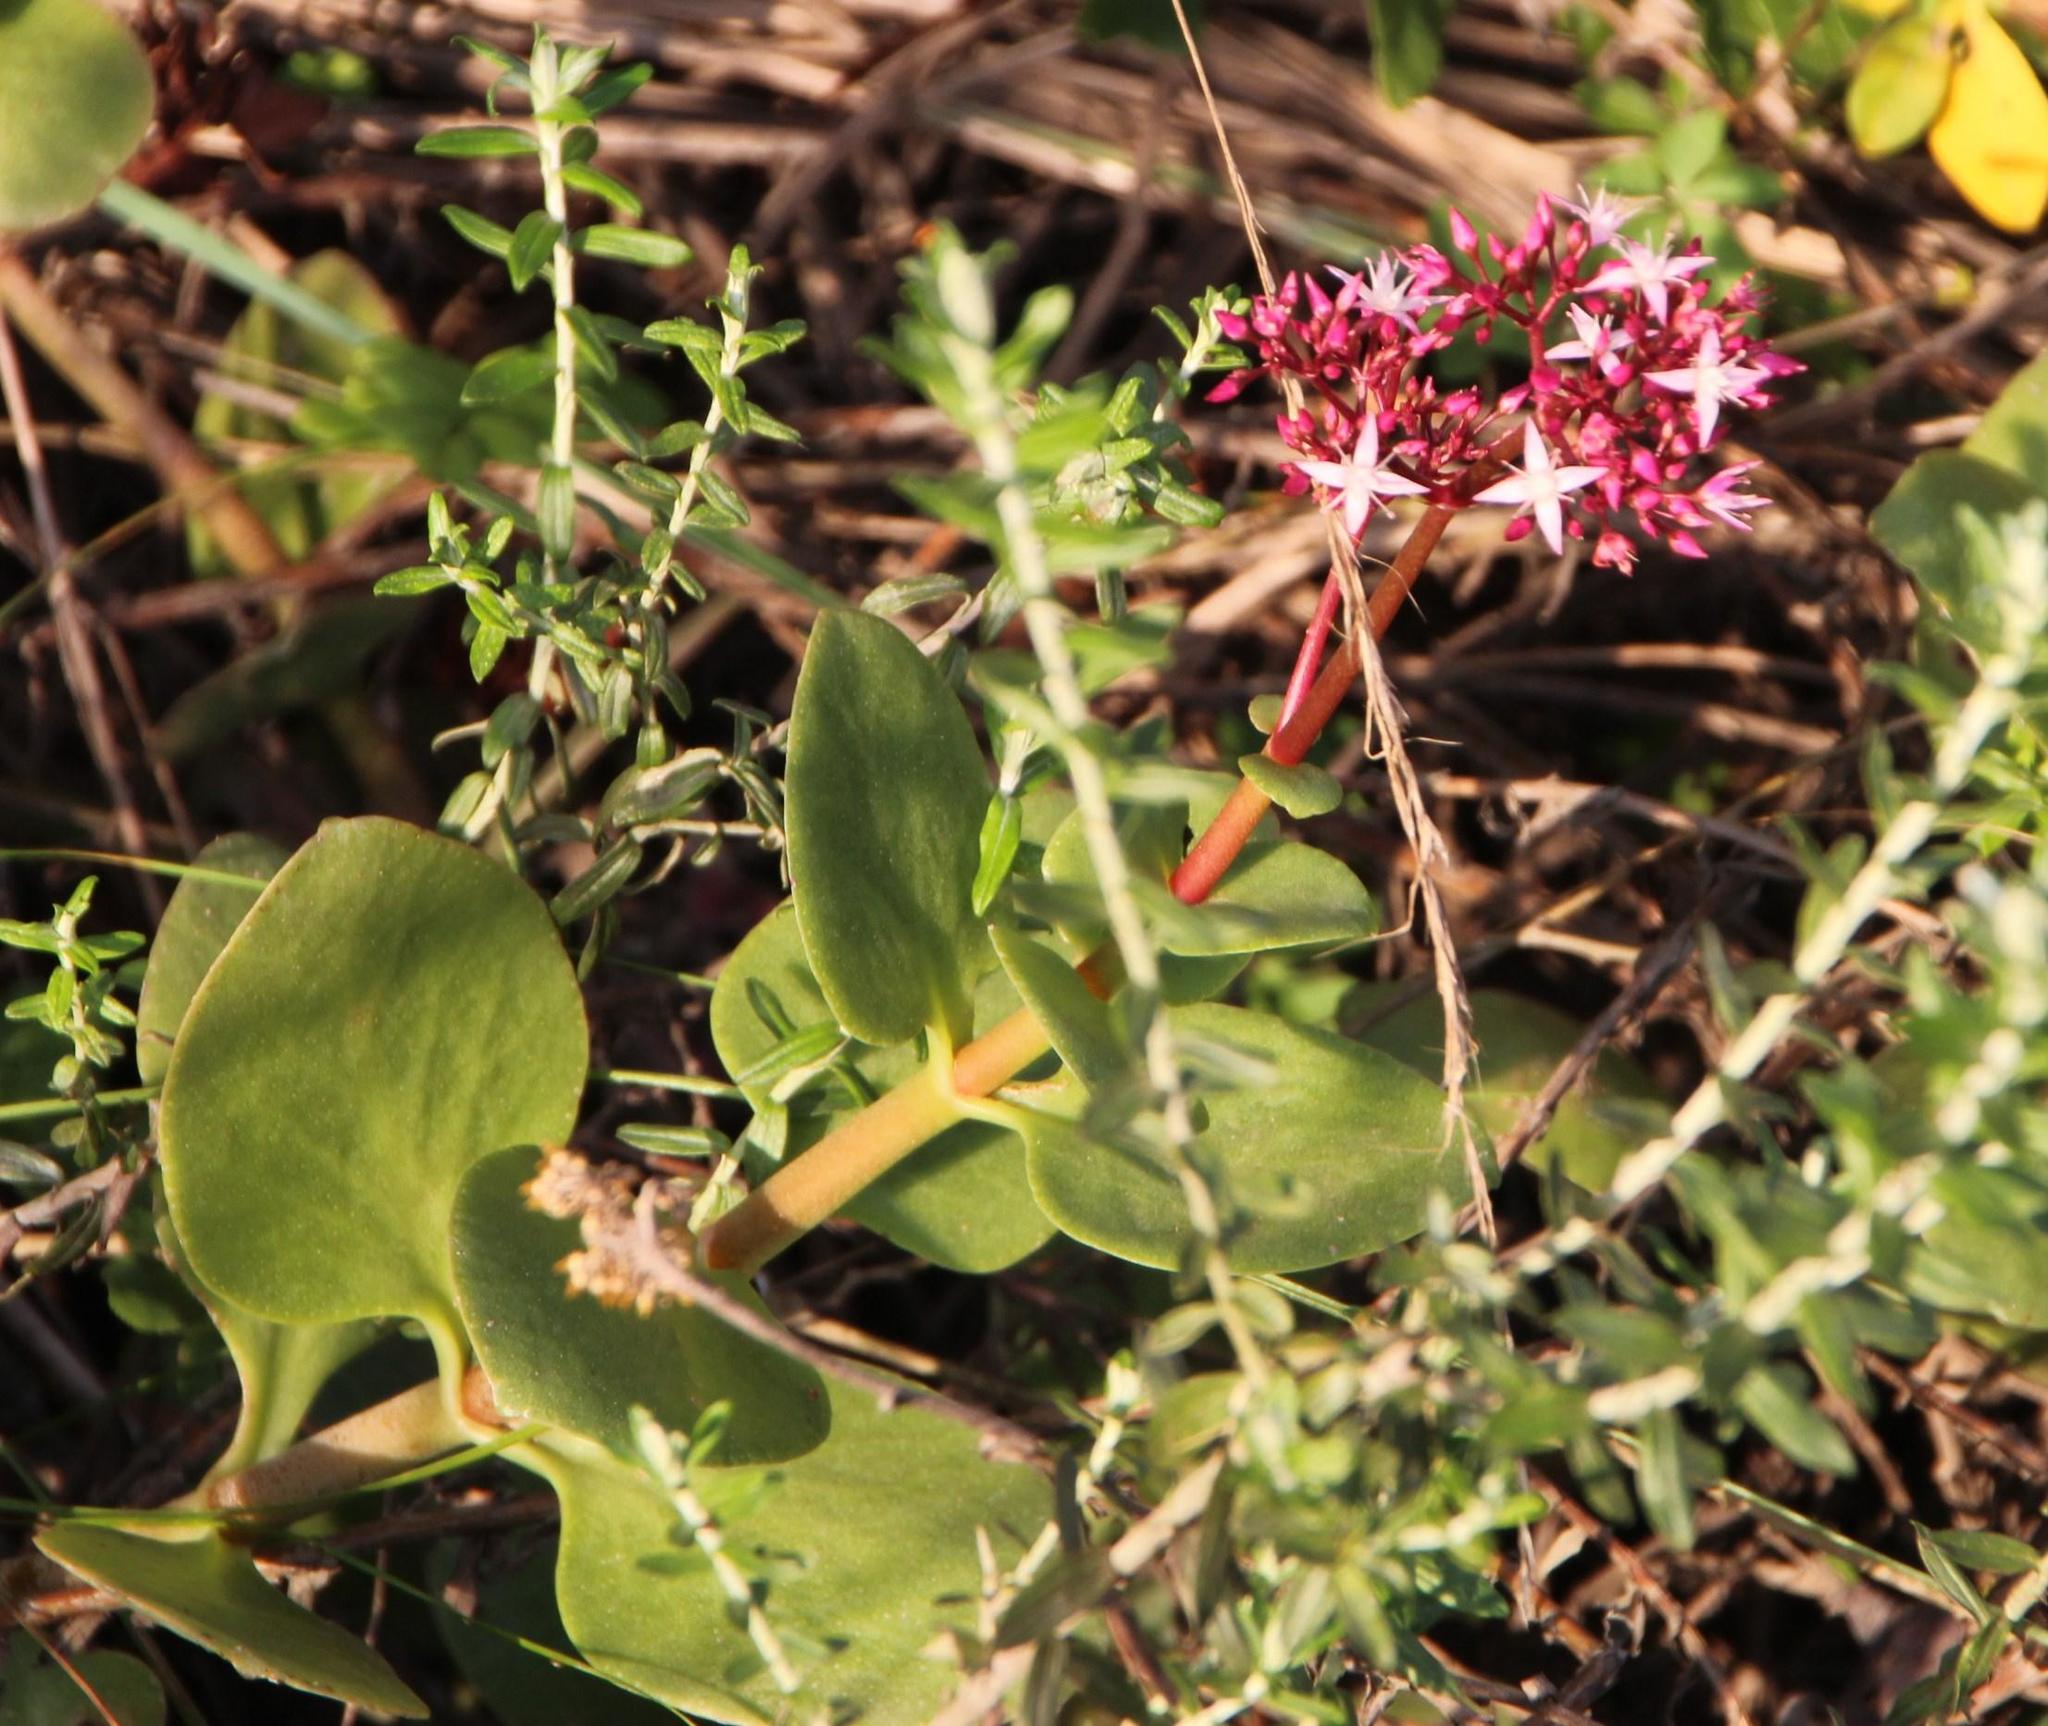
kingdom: Plantae
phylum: Tracheophyta
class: Magnoliopsida
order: Saxifragales
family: Crassulaceae
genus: Crassula
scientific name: Crassula multicava
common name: Cape province pygmyweed
